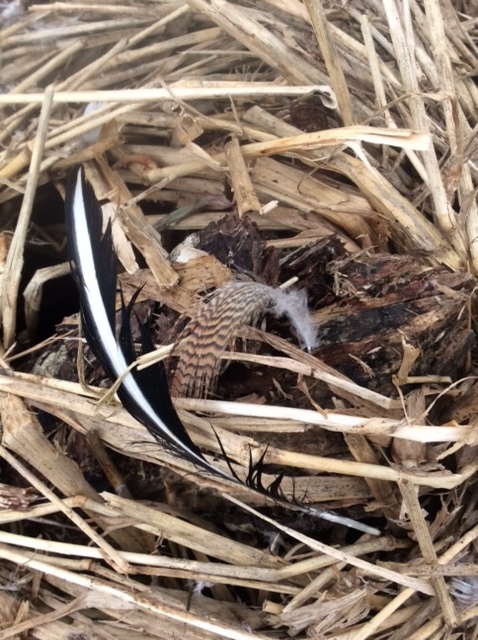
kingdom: Animalia
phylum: Chordata
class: Aves
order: Anseriformes
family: Anatidae
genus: Lophodytes
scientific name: Lophodytes cucullatus
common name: Hooded merganser
